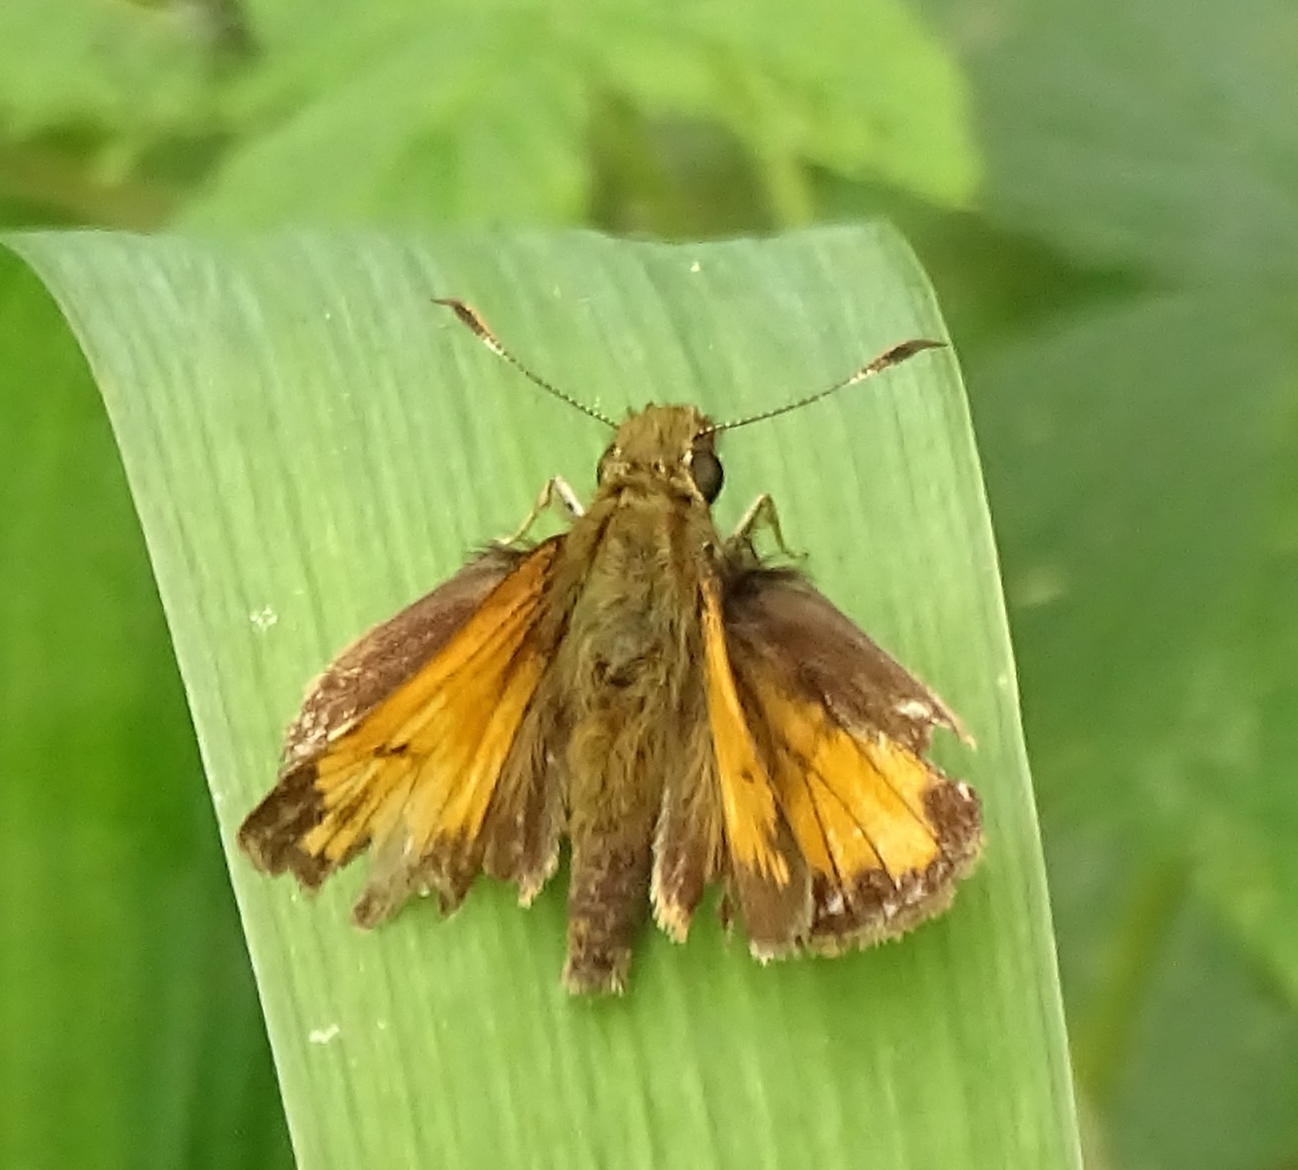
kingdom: Animalia
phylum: Arthropoda
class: Insecta
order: Lepidoptera
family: Hesperiidae
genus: Lon
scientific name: Lon hobomok
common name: Hobomok skipper
